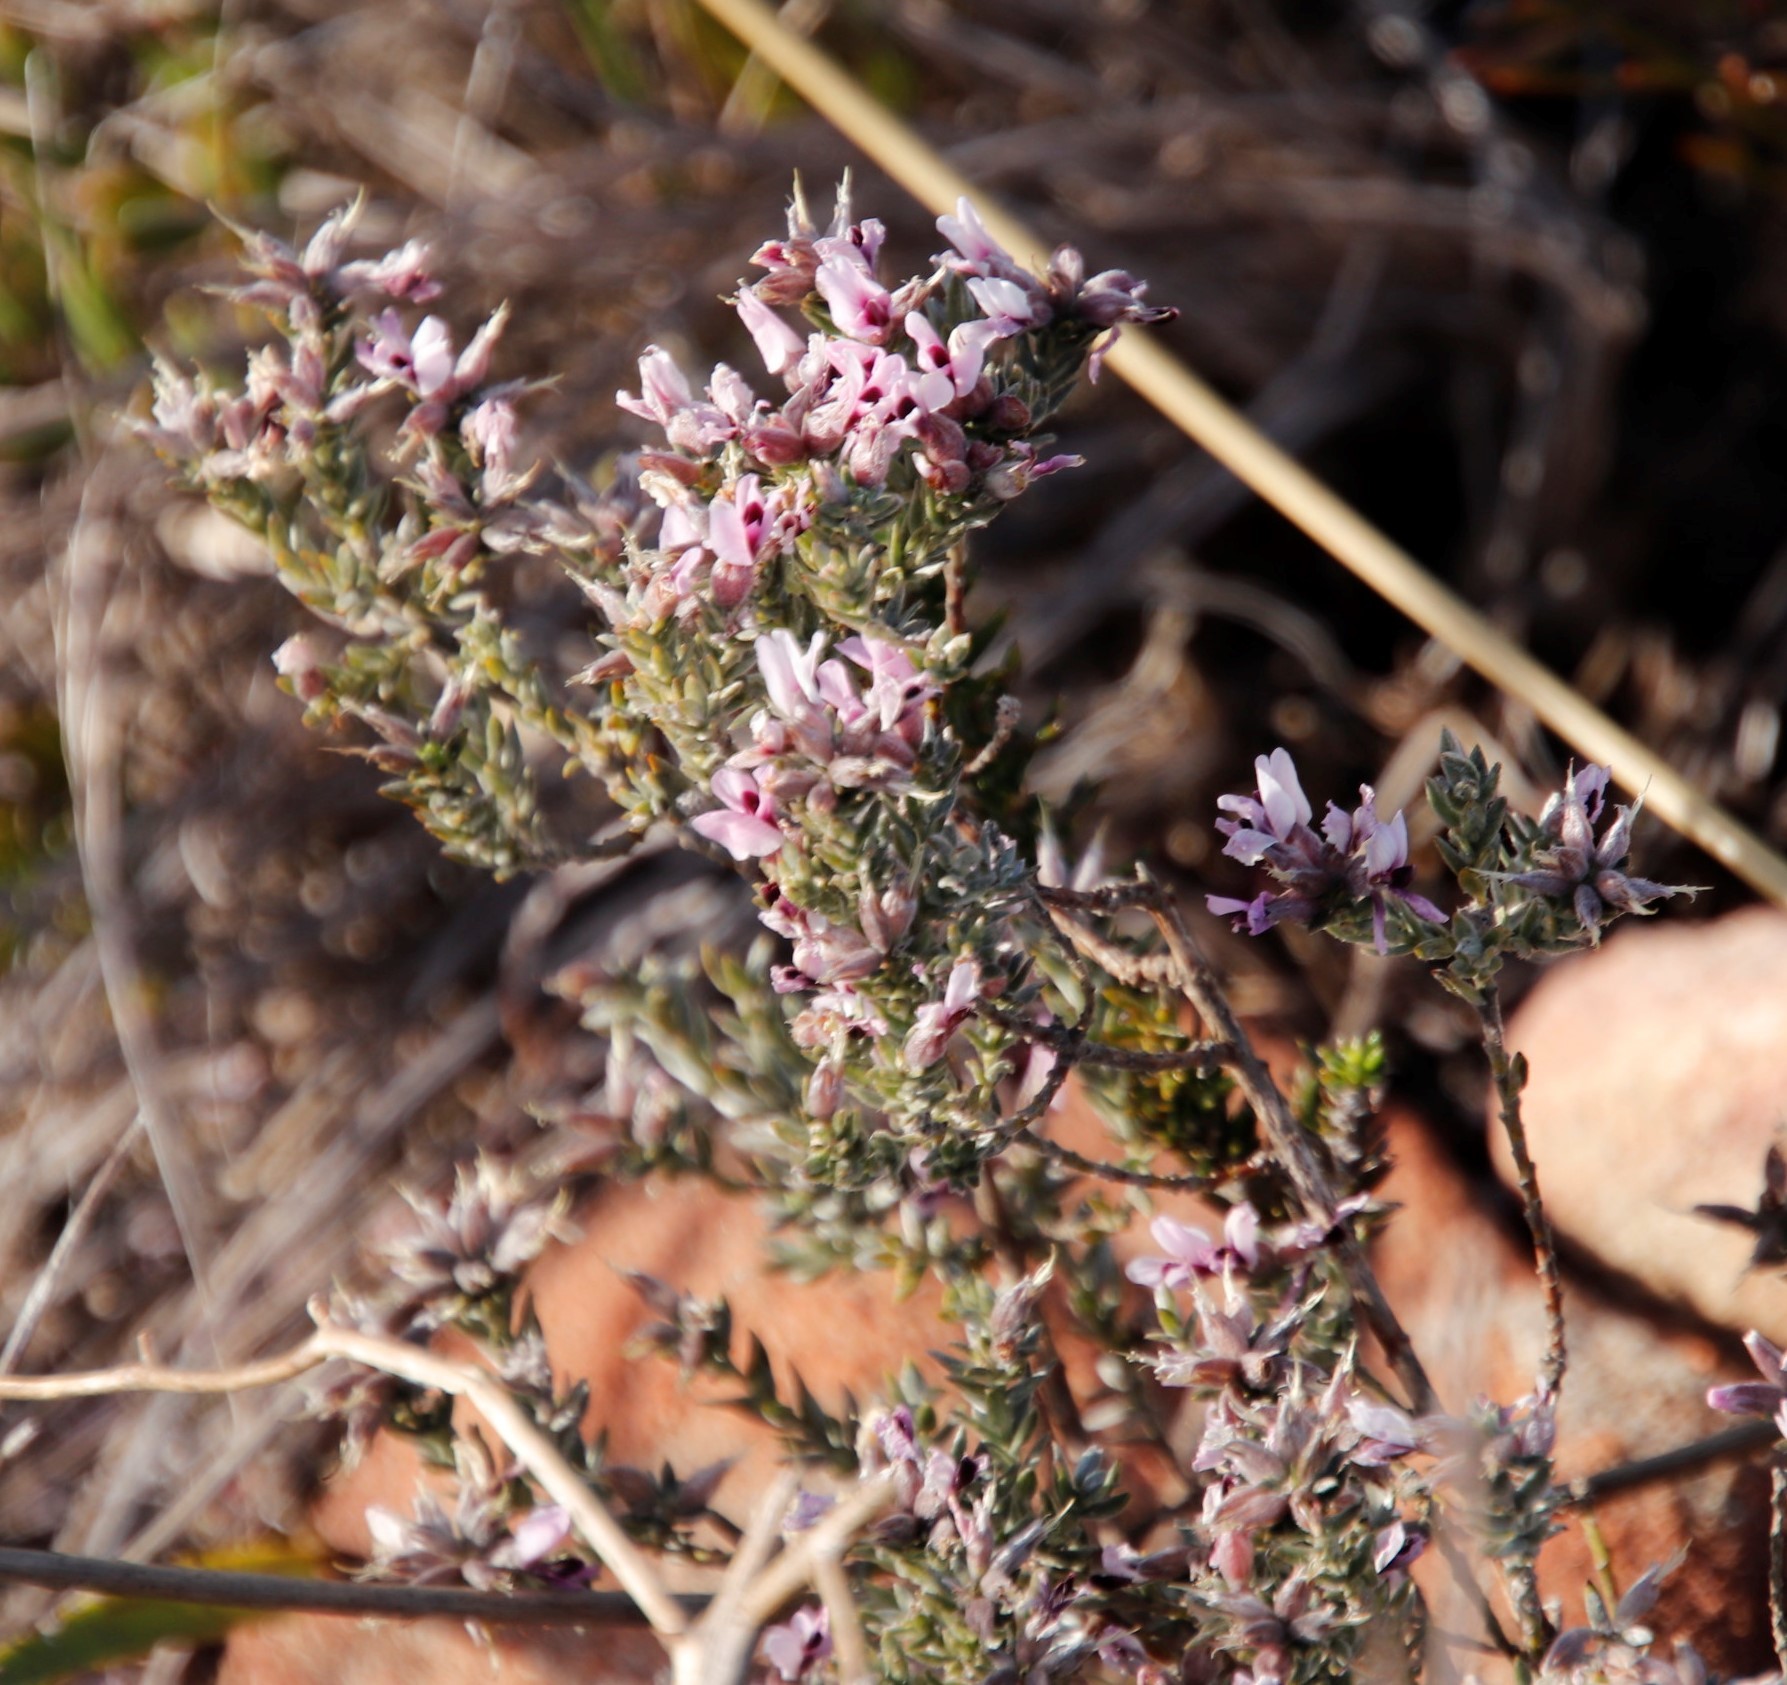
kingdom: Plantae
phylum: Tracheophyta
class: Magnoliopsida
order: Fabales
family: Fabaceae
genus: Amphithalea
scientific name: Amphithalea ericifolia
